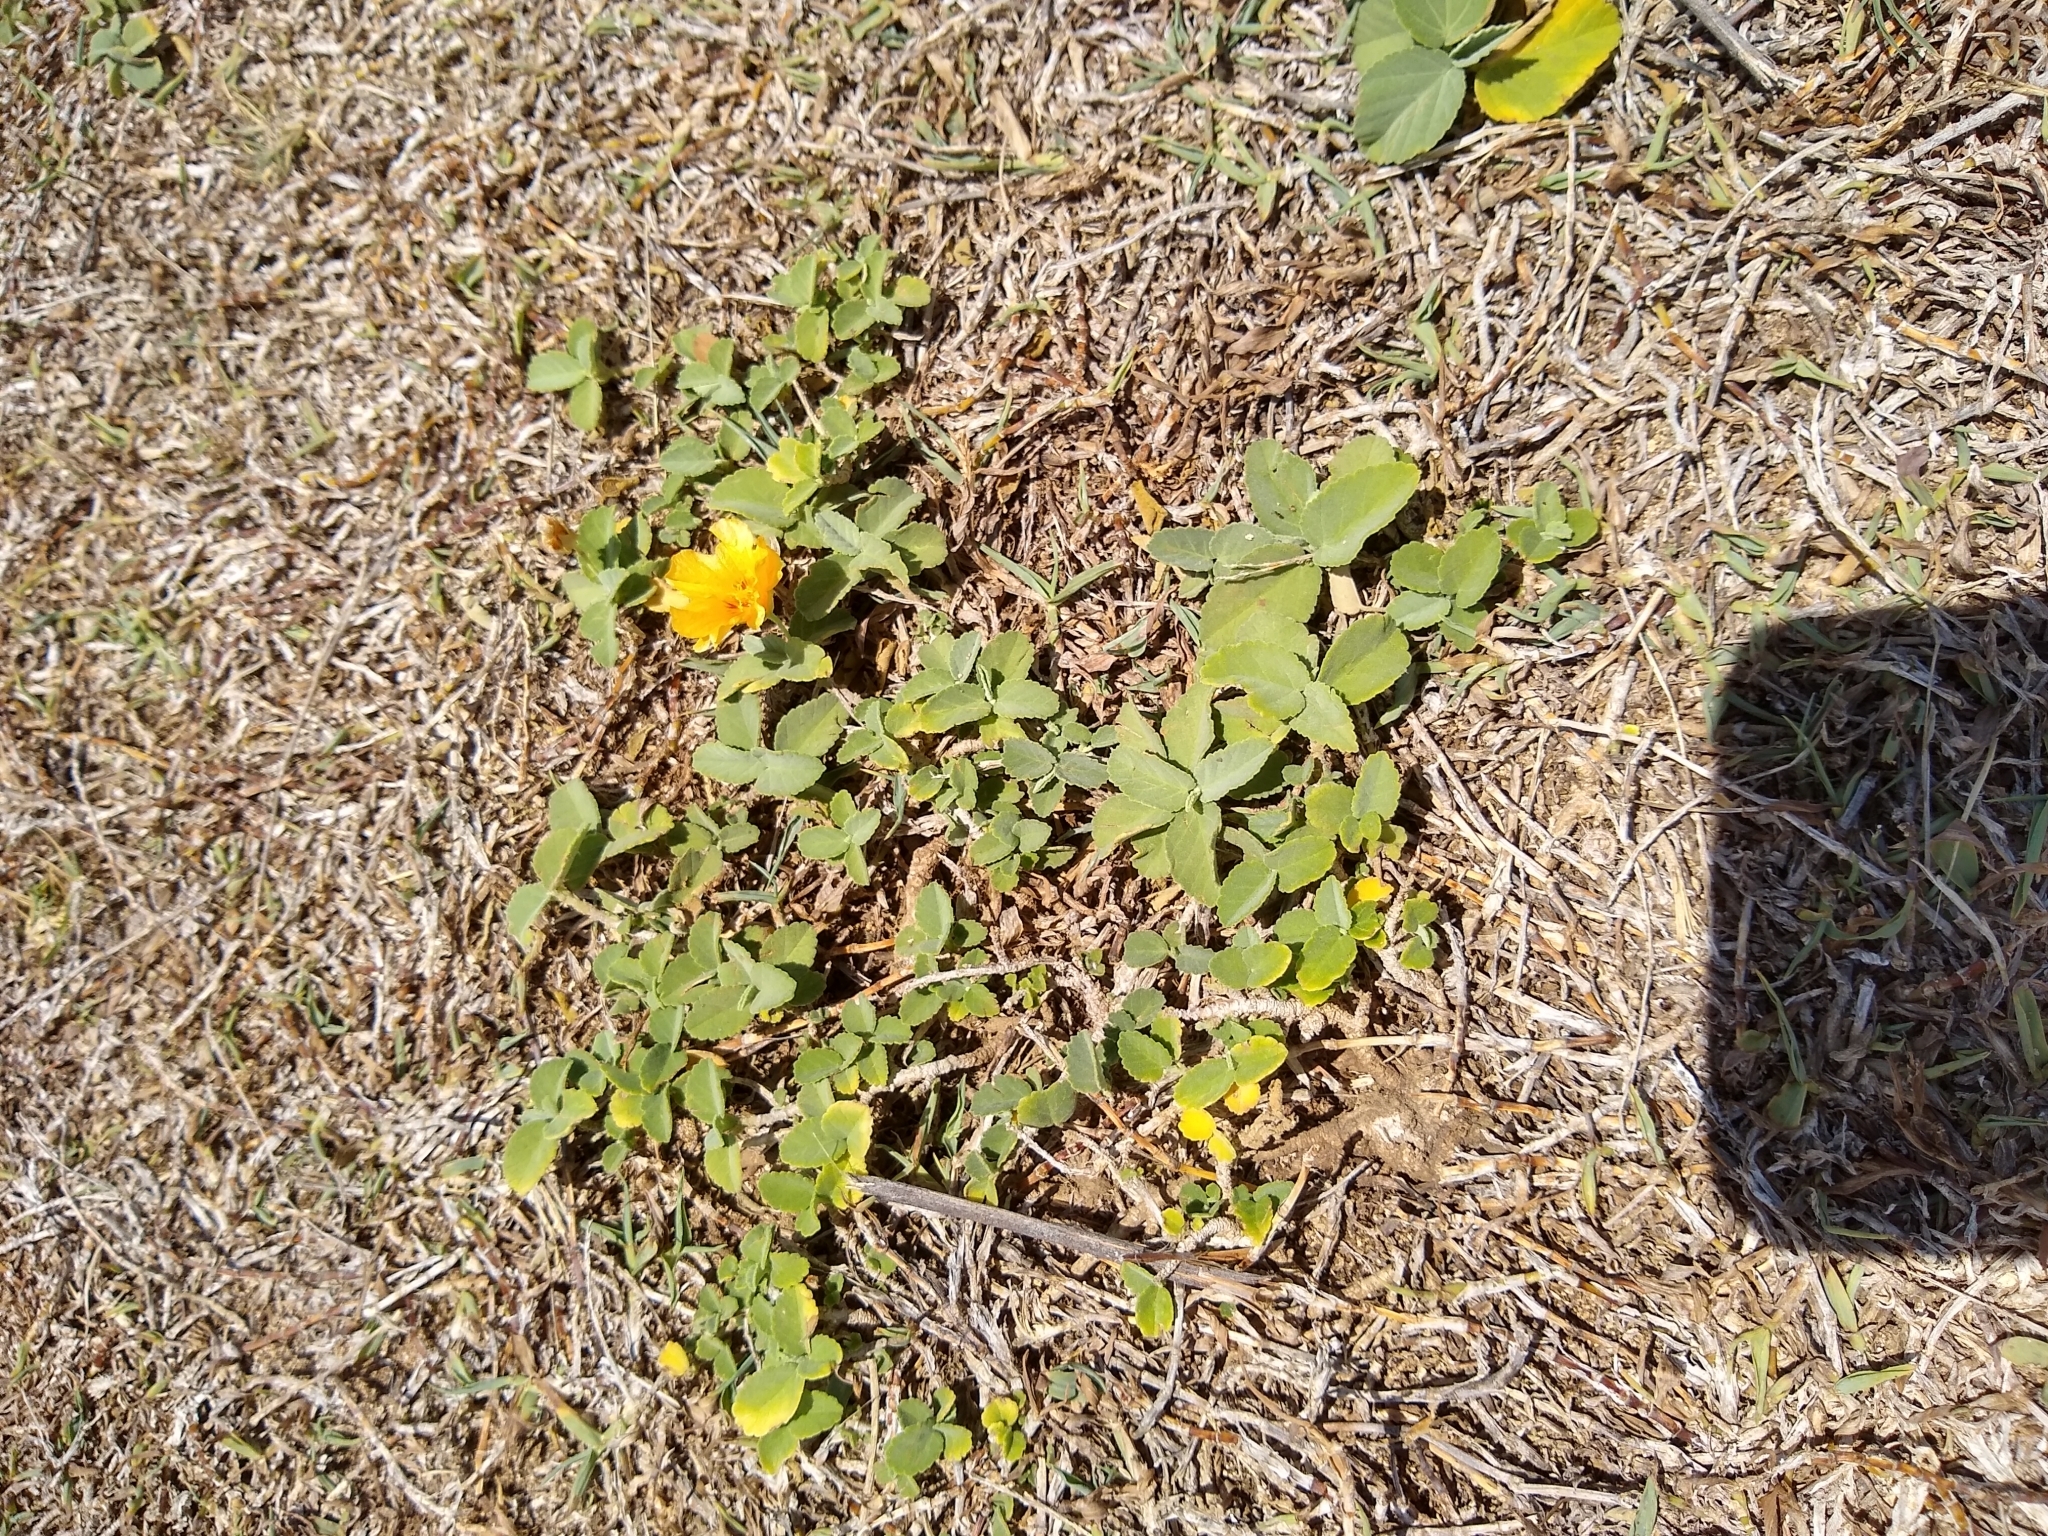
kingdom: Plantae
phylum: Tracheophyta
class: Magnoliopsida
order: Malvales
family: Malvaceae
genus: Sida
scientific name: Sida fallax
